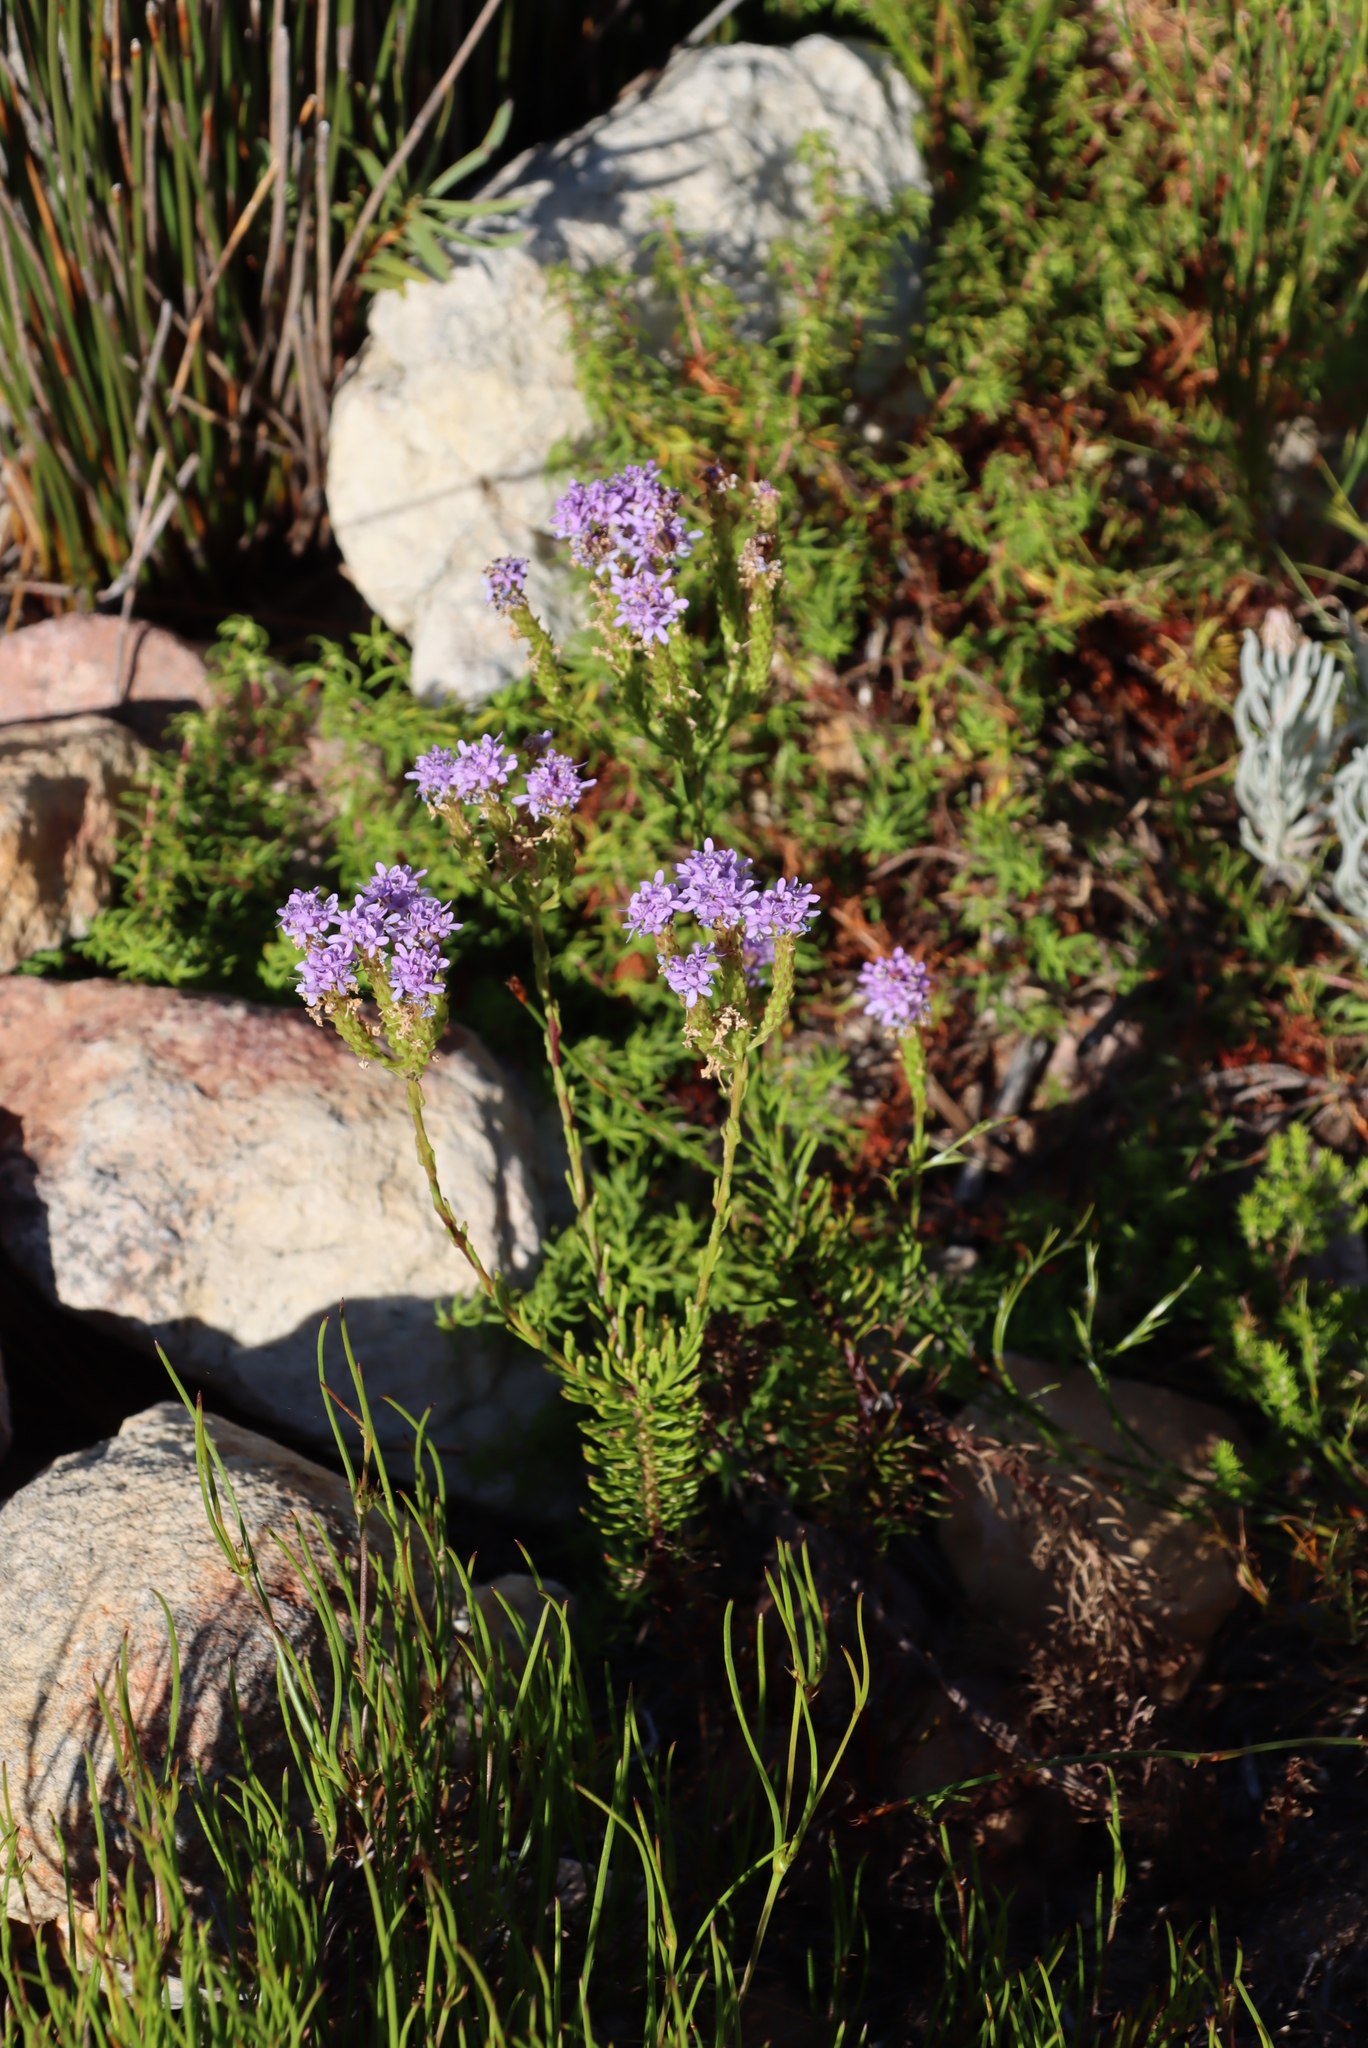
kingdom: Plantae
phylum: Tracheophyta
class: Magnoliopsida
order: Lamiales
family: Scrophulariaceae
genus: Pseudoselago
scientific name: Pseudoselago spuria
